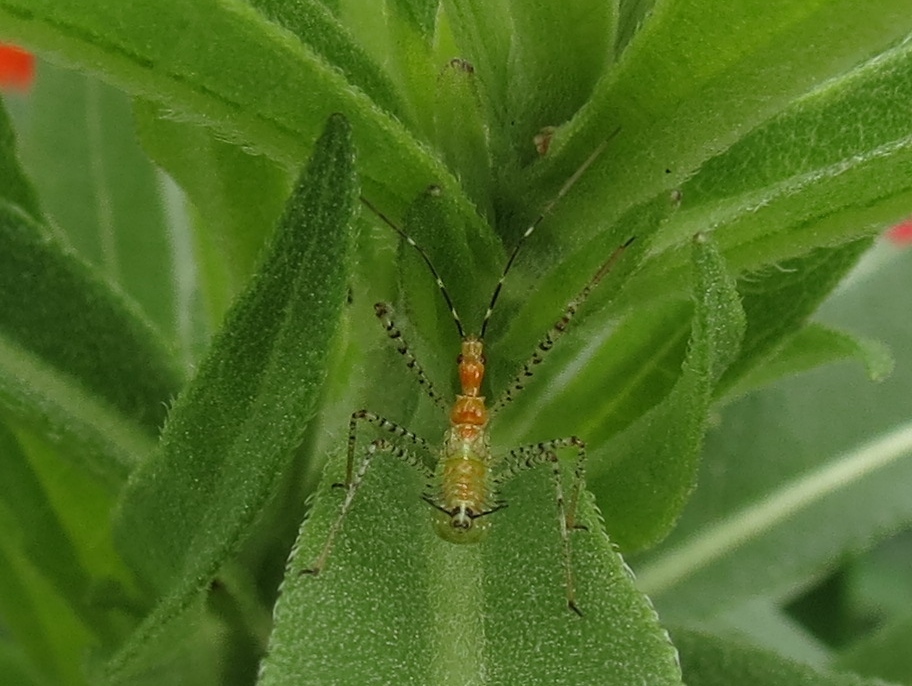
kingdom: Animalia
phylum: Arthropoda
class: Insecta
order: Hemiptera
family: Reduviidae
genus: Zelus
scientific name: Zelus renardii
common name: Assassin bug
